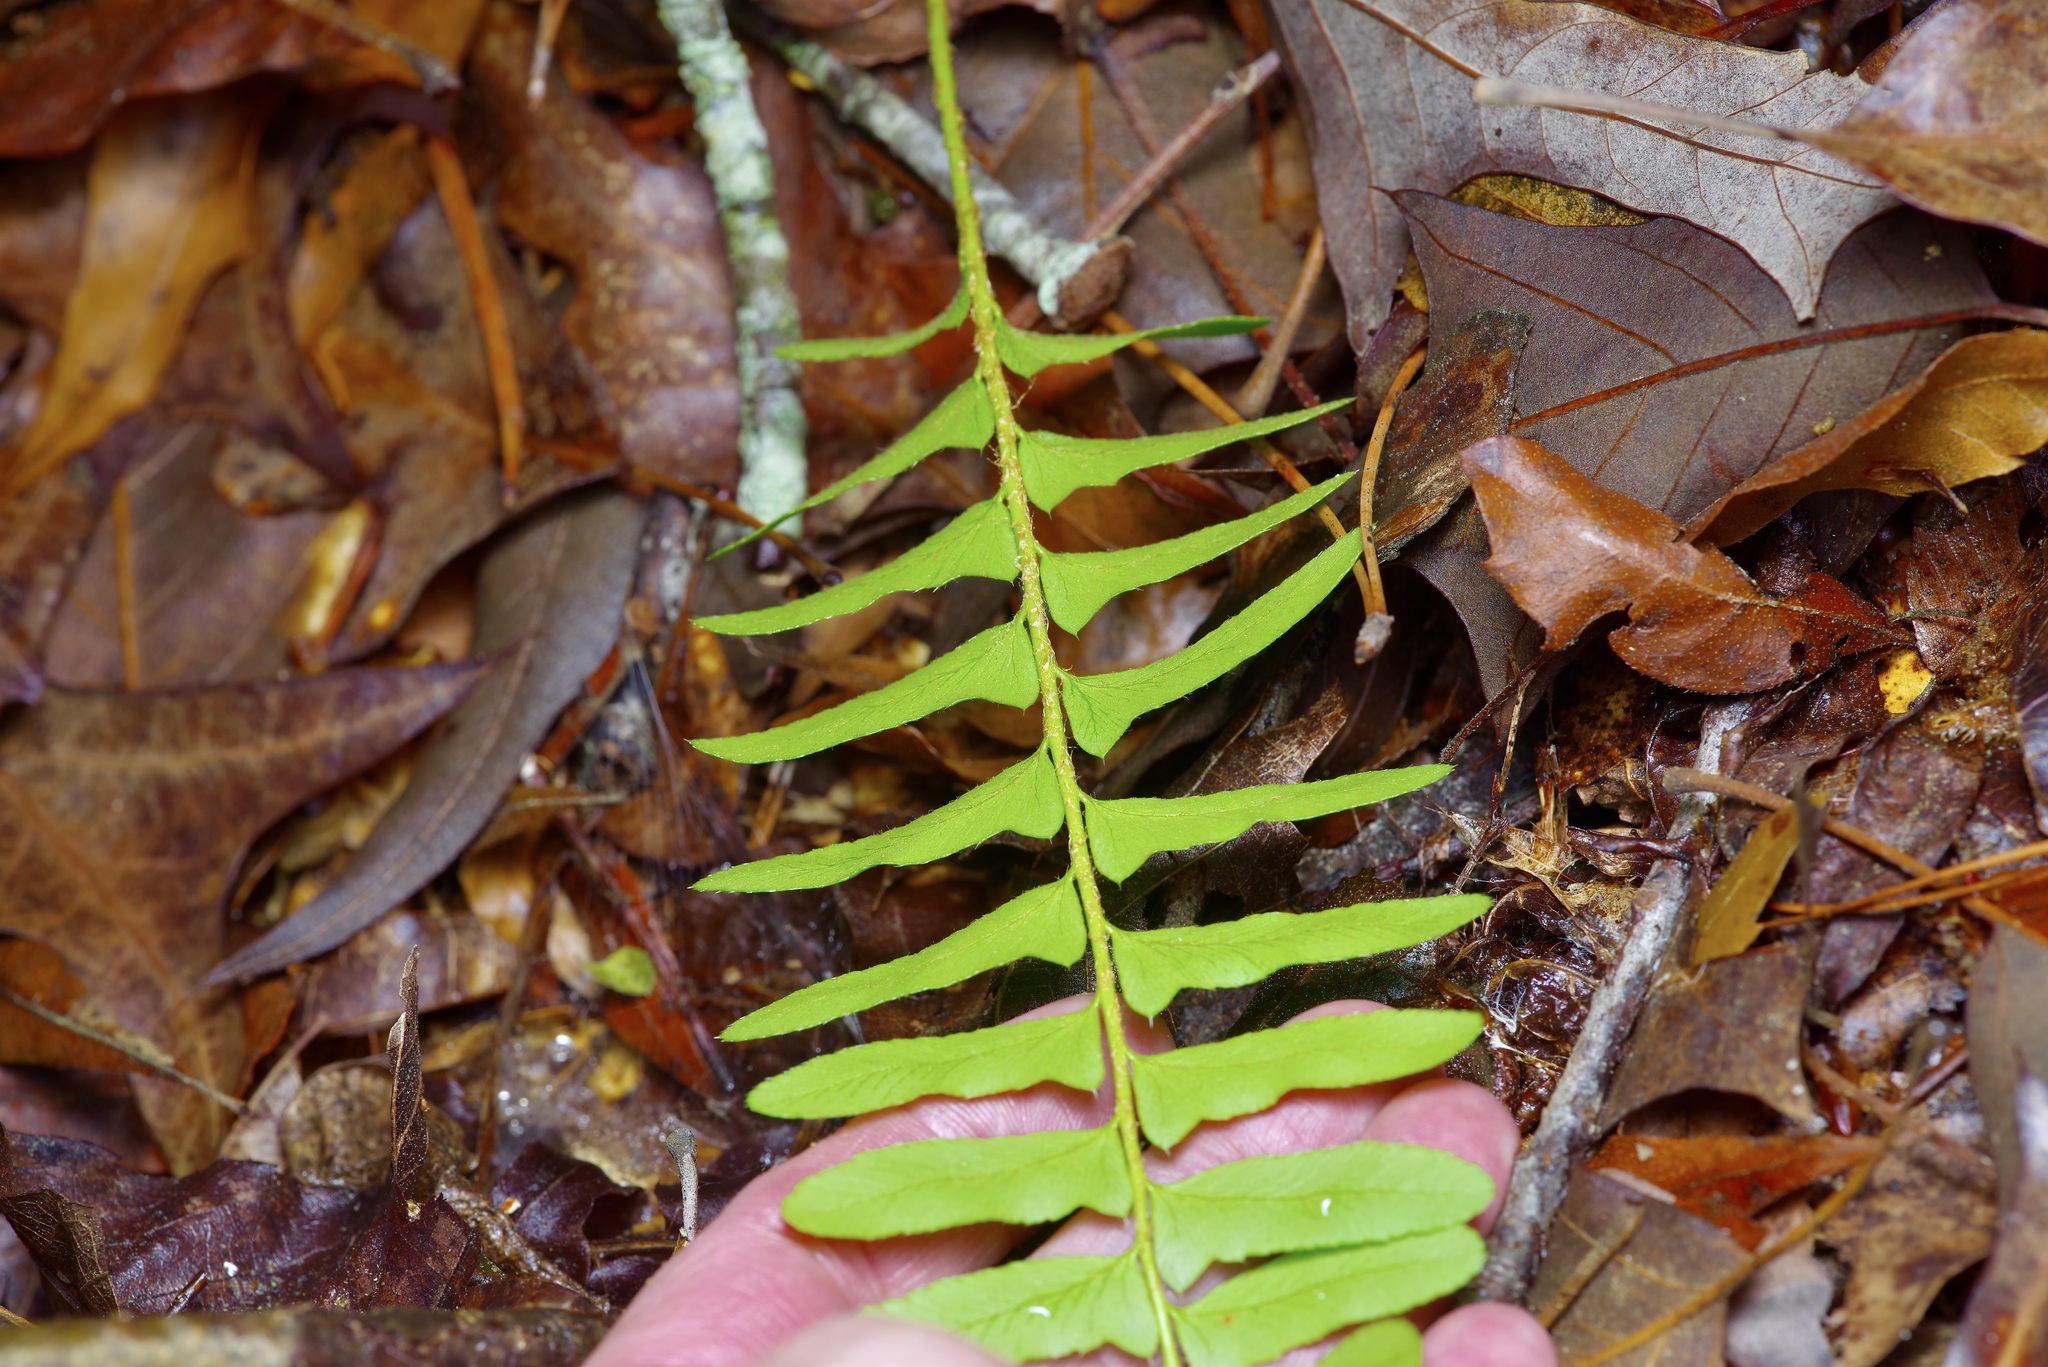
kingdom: Plantae
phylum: Tracheophyta
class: Polypodiopsida
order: Polypodiales
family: Dryopteridaceae
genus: Polystichum
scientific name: Polystichum acrostichoides
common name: Christmas fern
